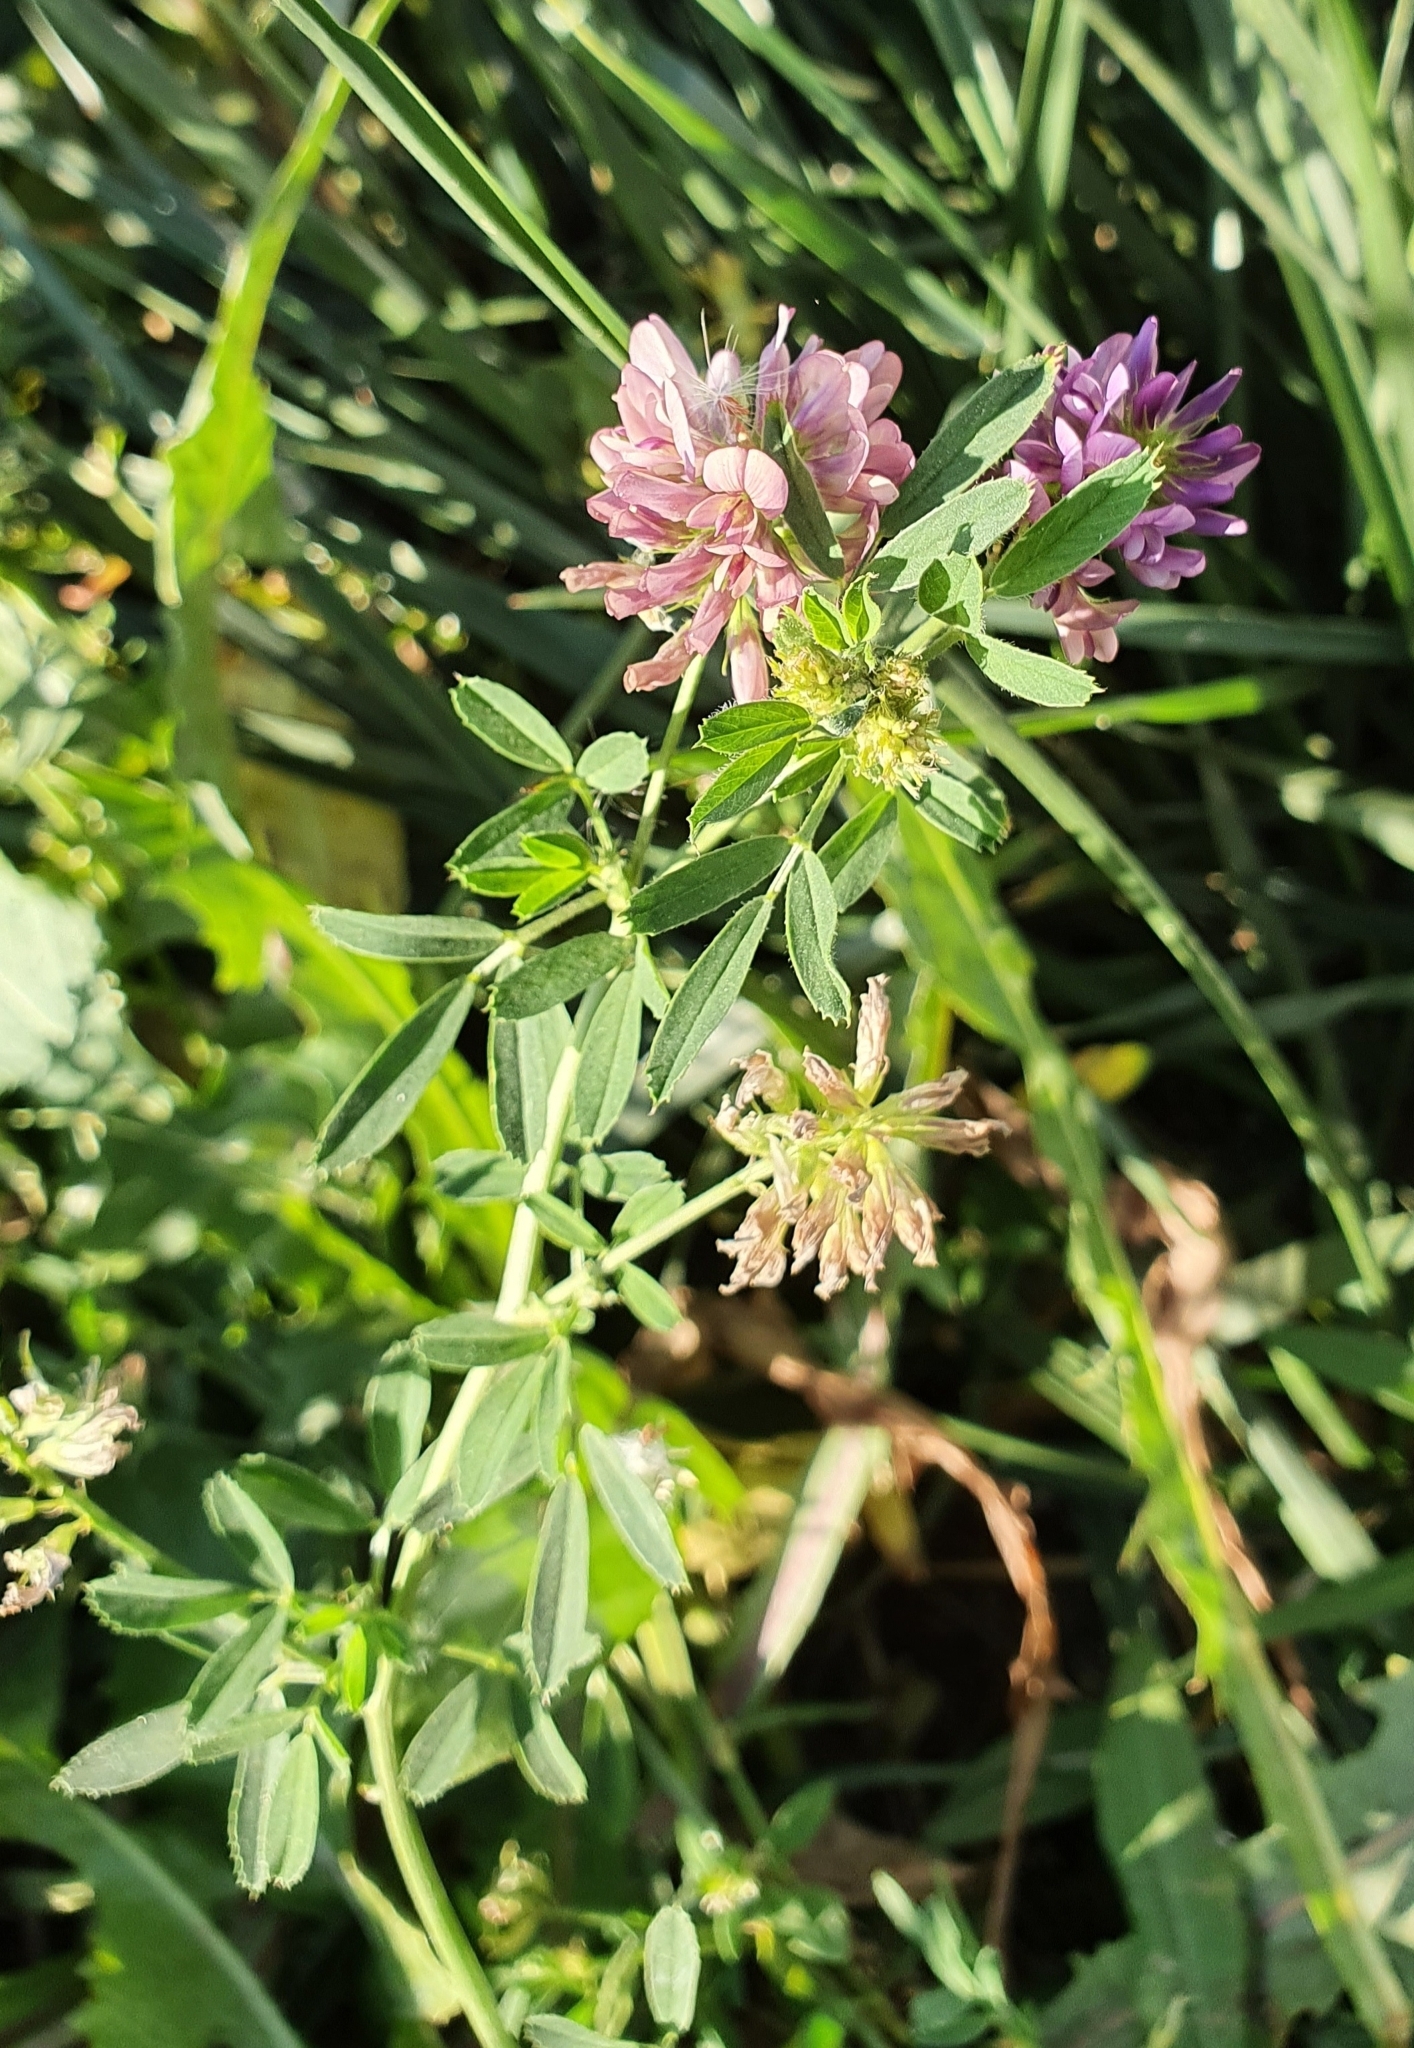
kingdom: Plantae
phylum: Tracheophyta
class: Magnoliopsida
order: Fabales
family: Fabaceae
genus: Medicago
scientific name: Medicago sativa
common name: Alfalfa
